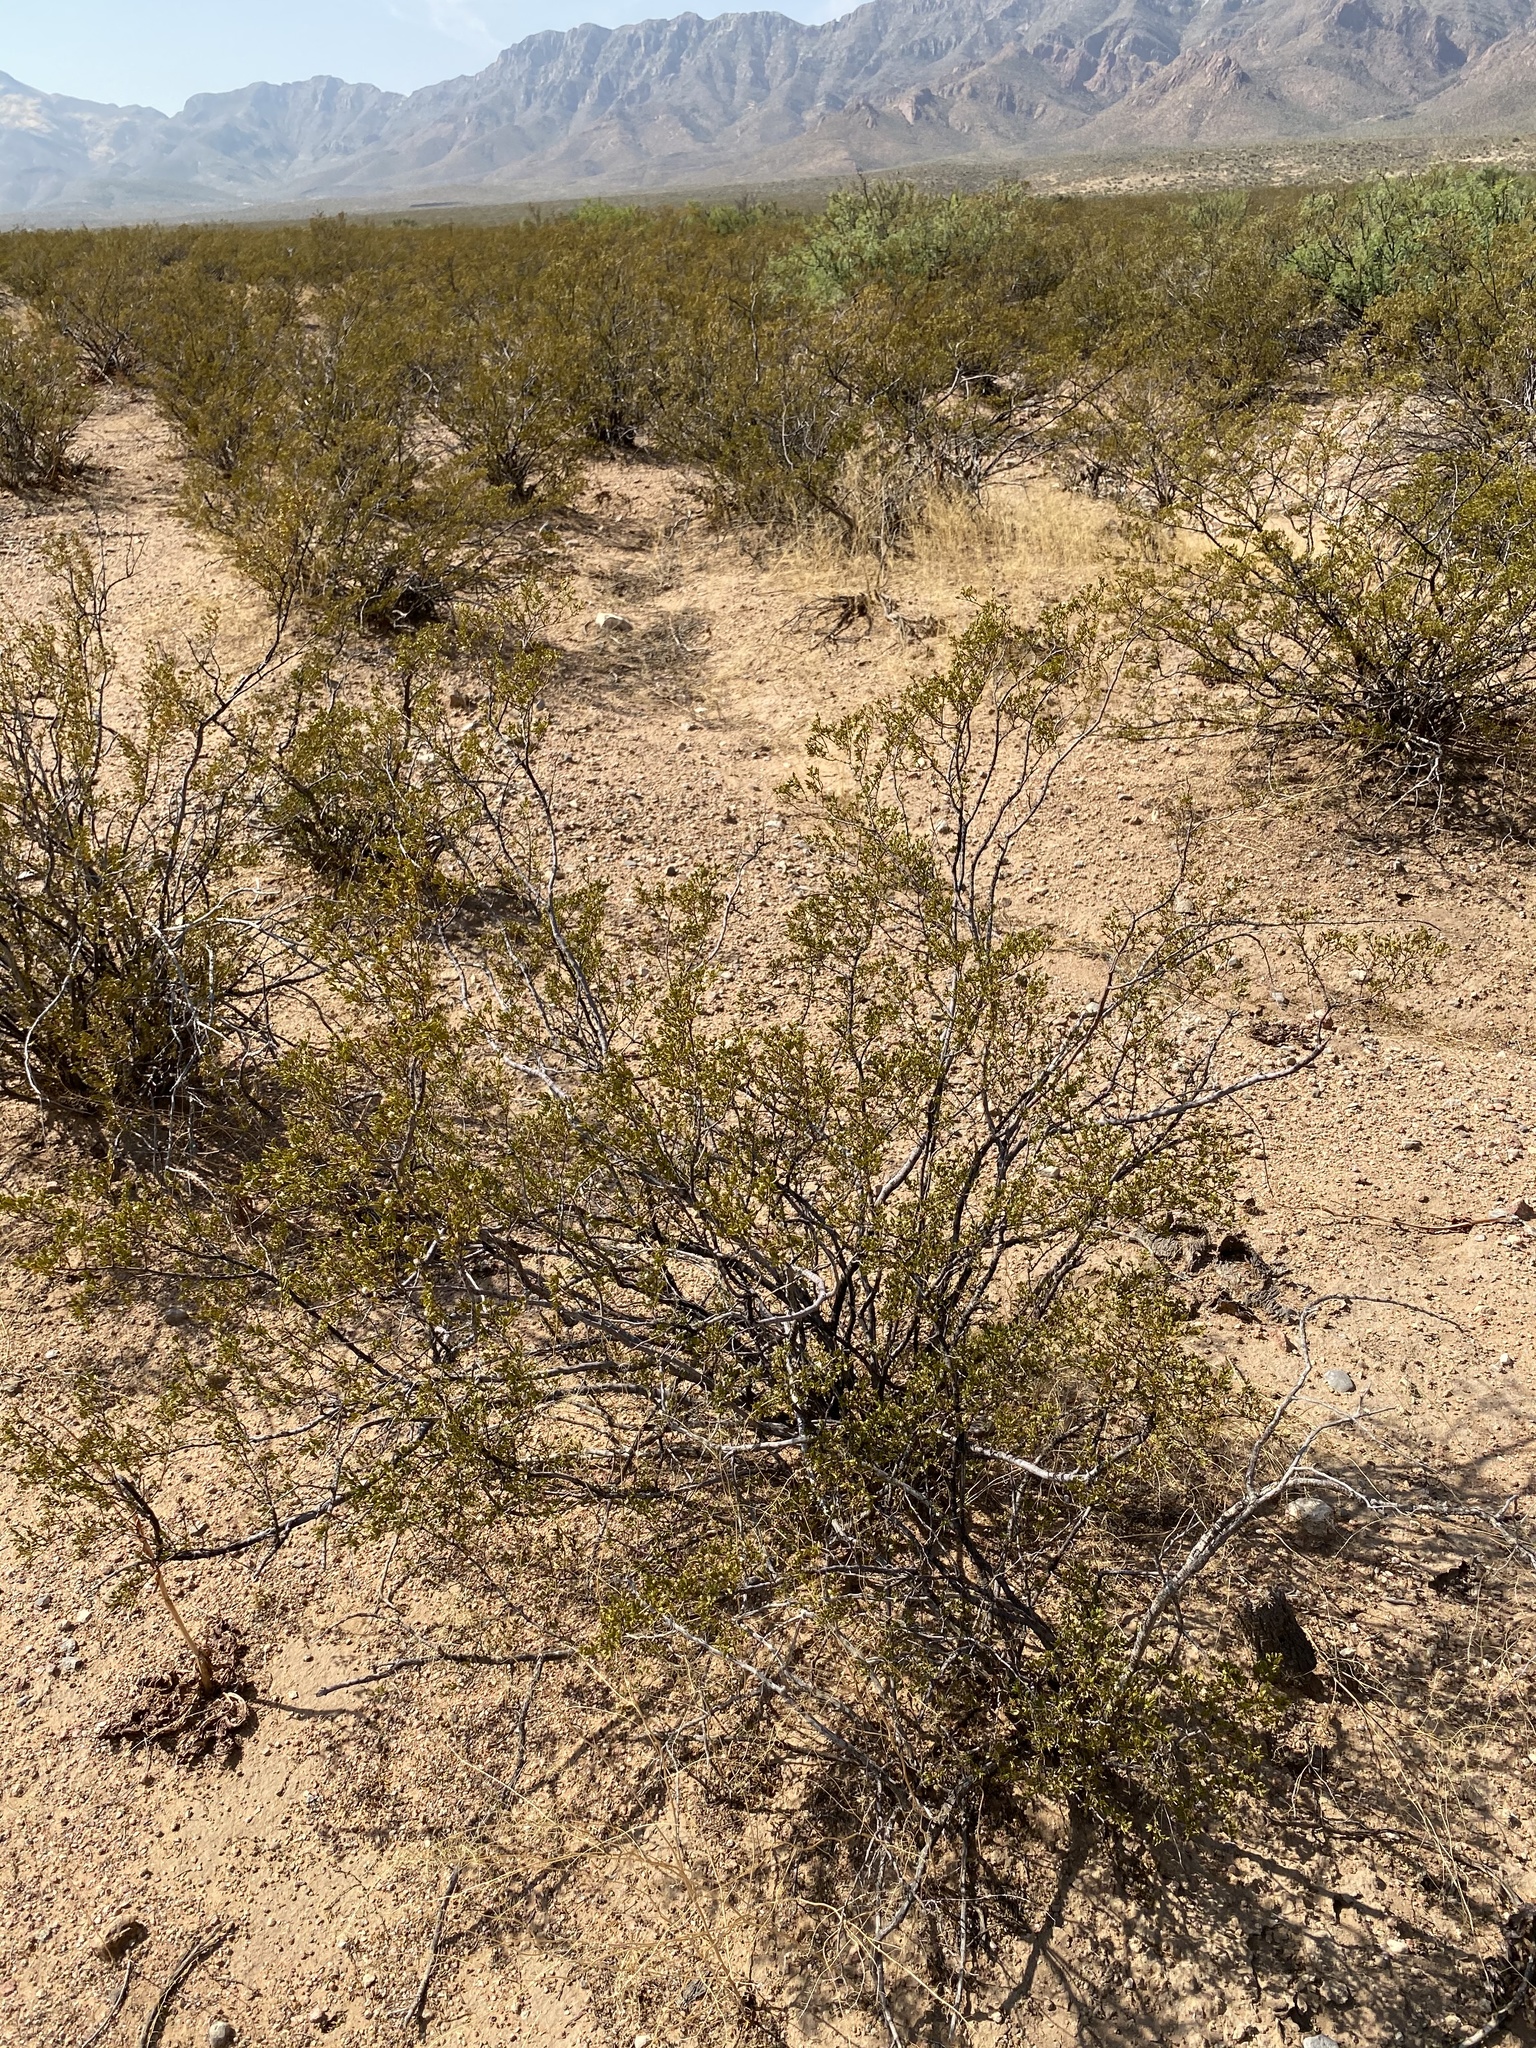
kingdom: Plantae
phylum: Tracheophyta
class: Magnoliopsida
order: Zygophyllales
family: Zygophyllaceae
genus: Larrea
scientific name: Larrea tridentata
